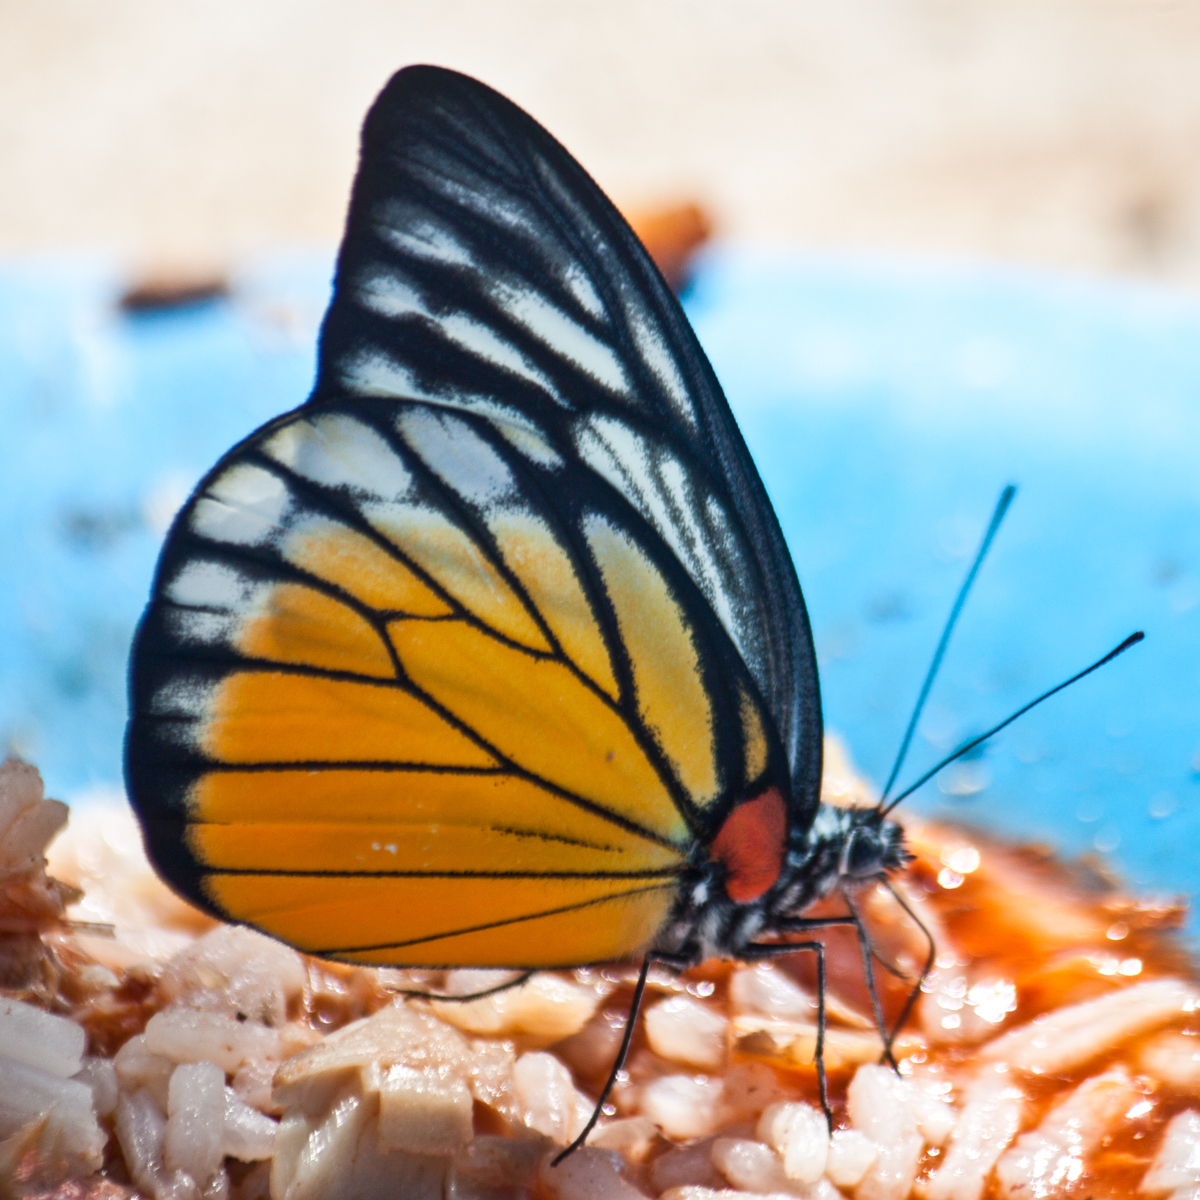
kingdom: Animalia
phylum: Arthropoda
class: Insecta
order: Lepidoptera
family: Pieridae
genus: Prioneris
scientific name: Prioneris
